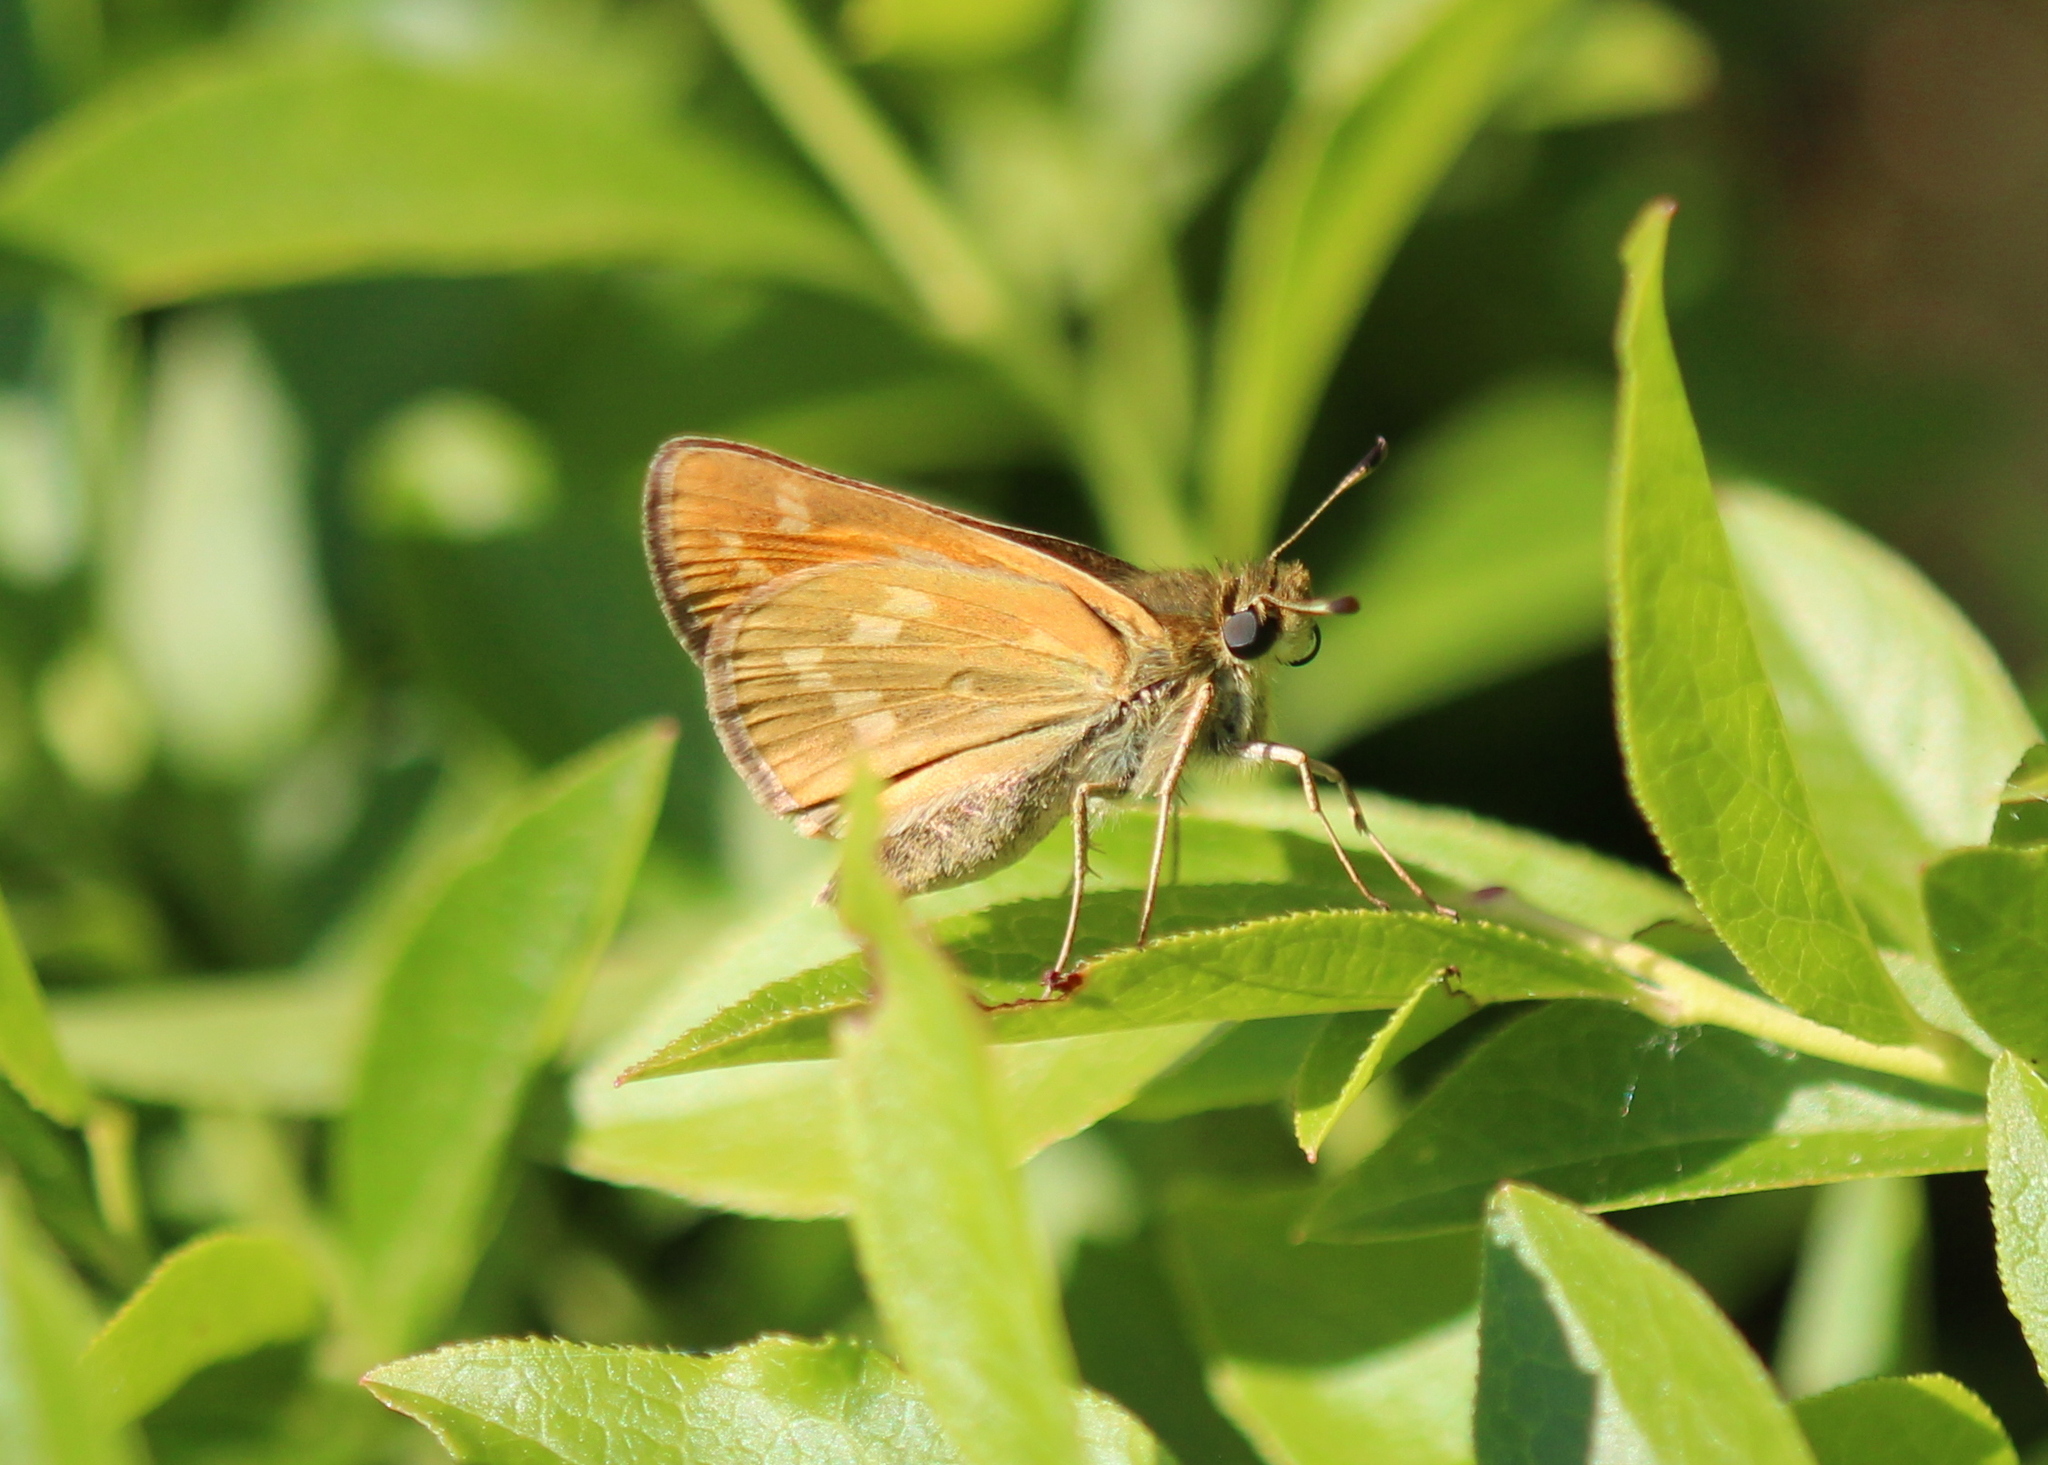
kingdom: Animalia
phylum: Arthropoda
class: Insecta
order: Lepidoptera
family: Hesperiidae
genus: Hesperia
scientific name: Hesperia sassacus
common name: Indian skipper
